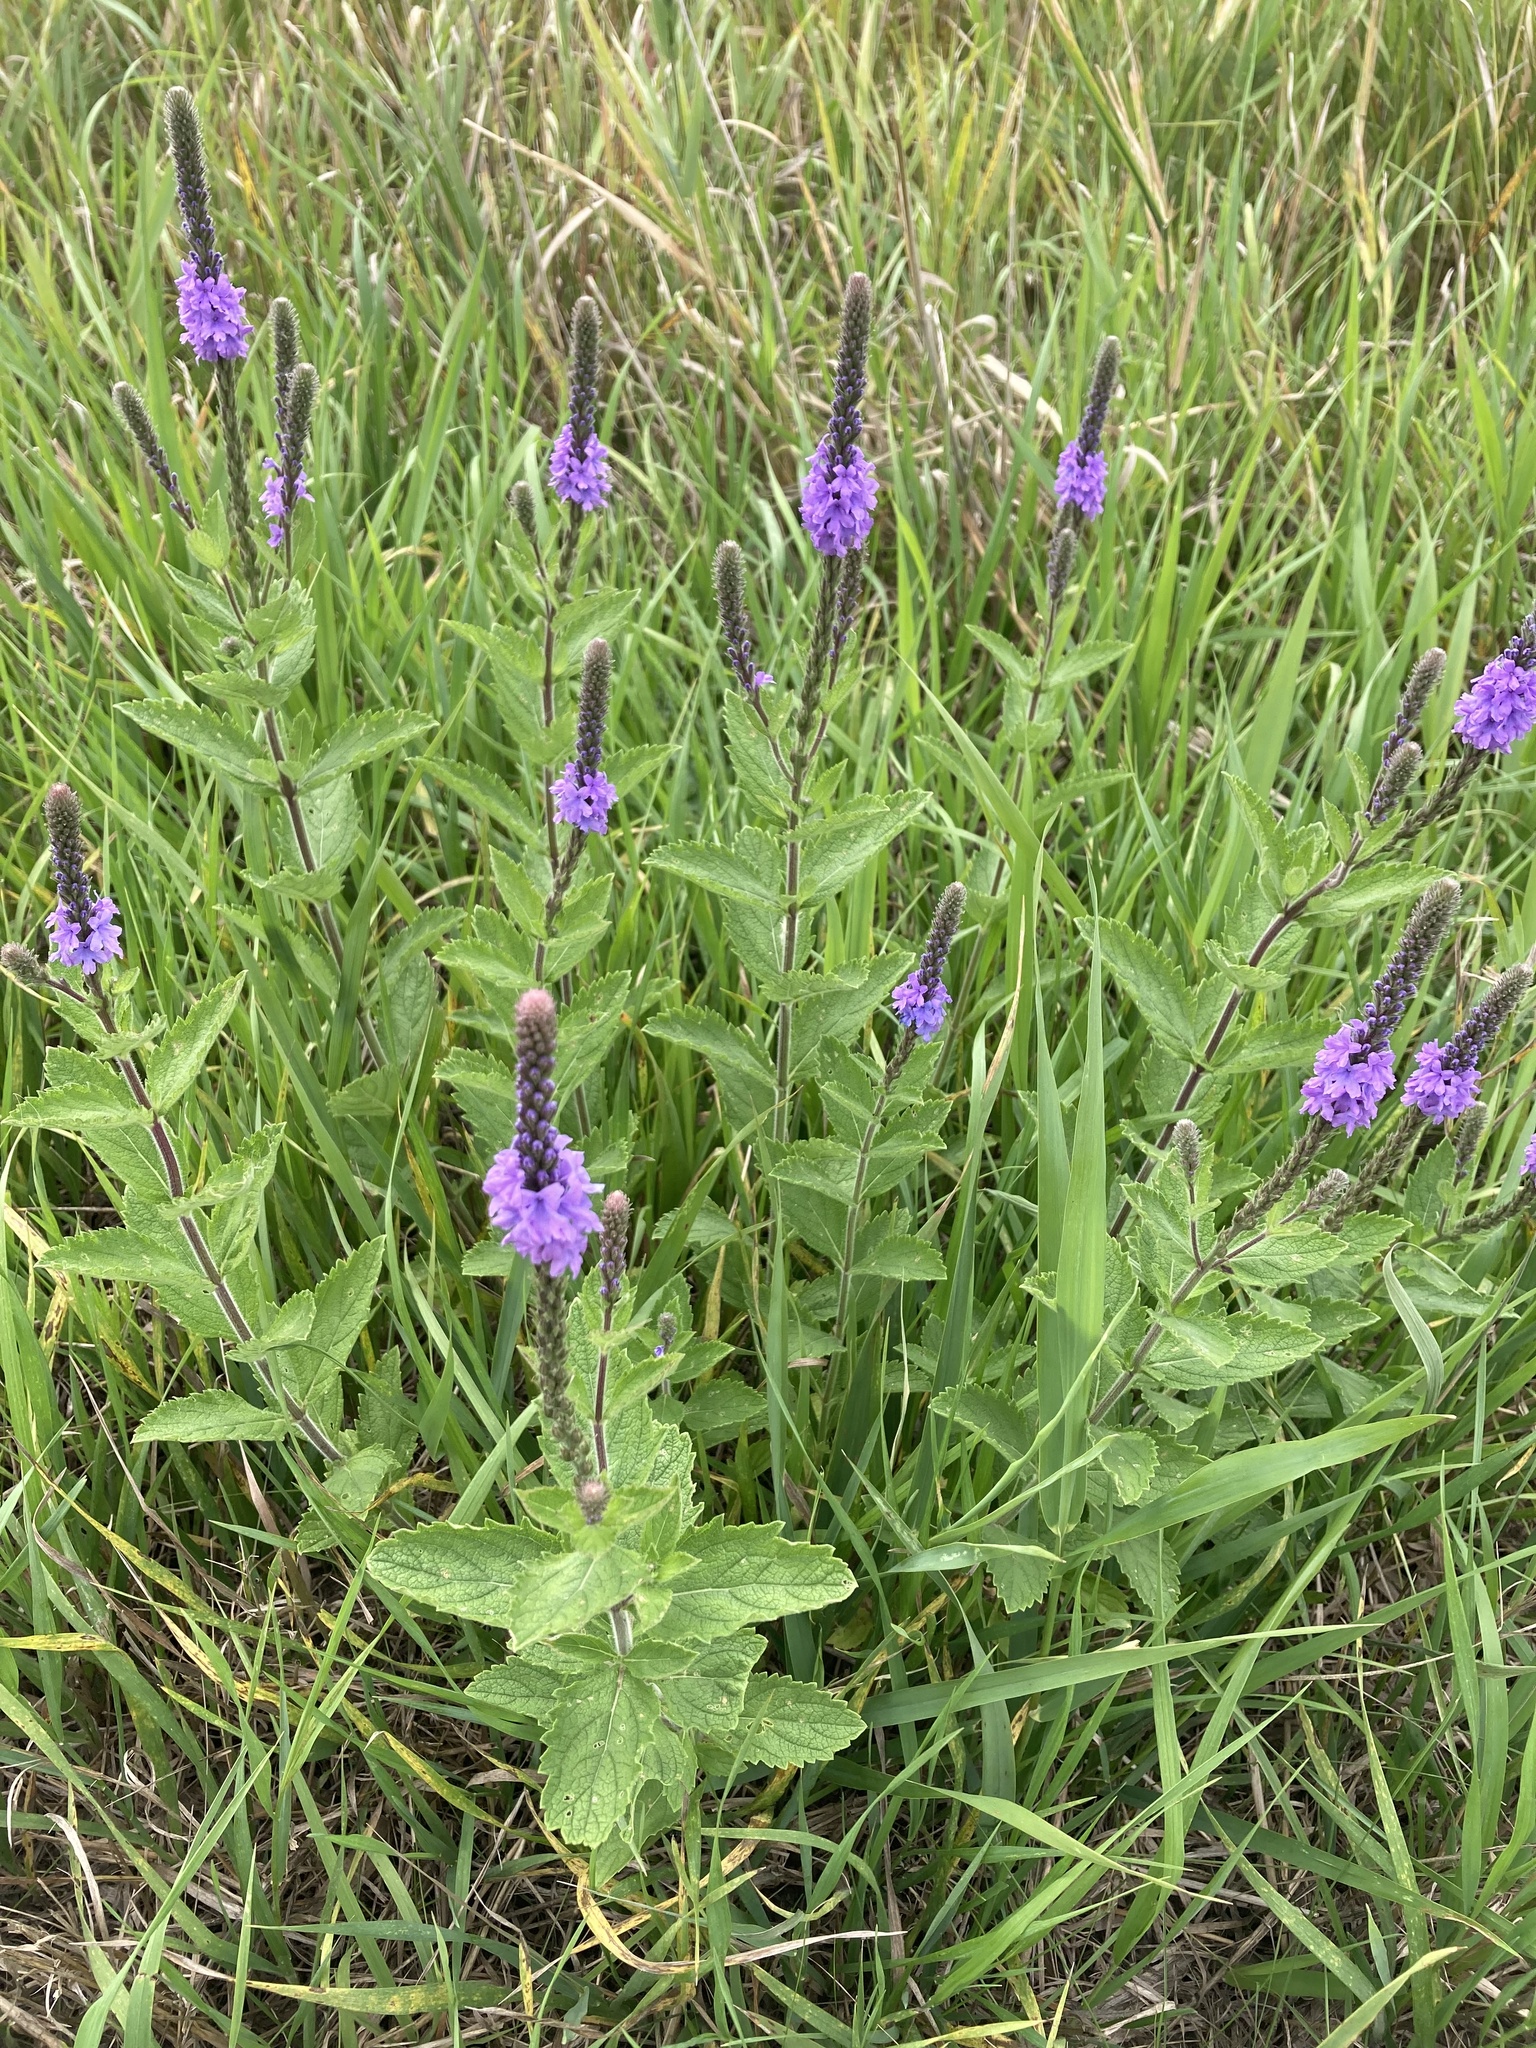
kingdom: Plantae
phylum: Tracheophyta
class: Magnoliopsida
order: Lamiales
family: Verbenaceae
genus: Verbena
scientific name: Verbena stricta
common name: Hoary vervain
